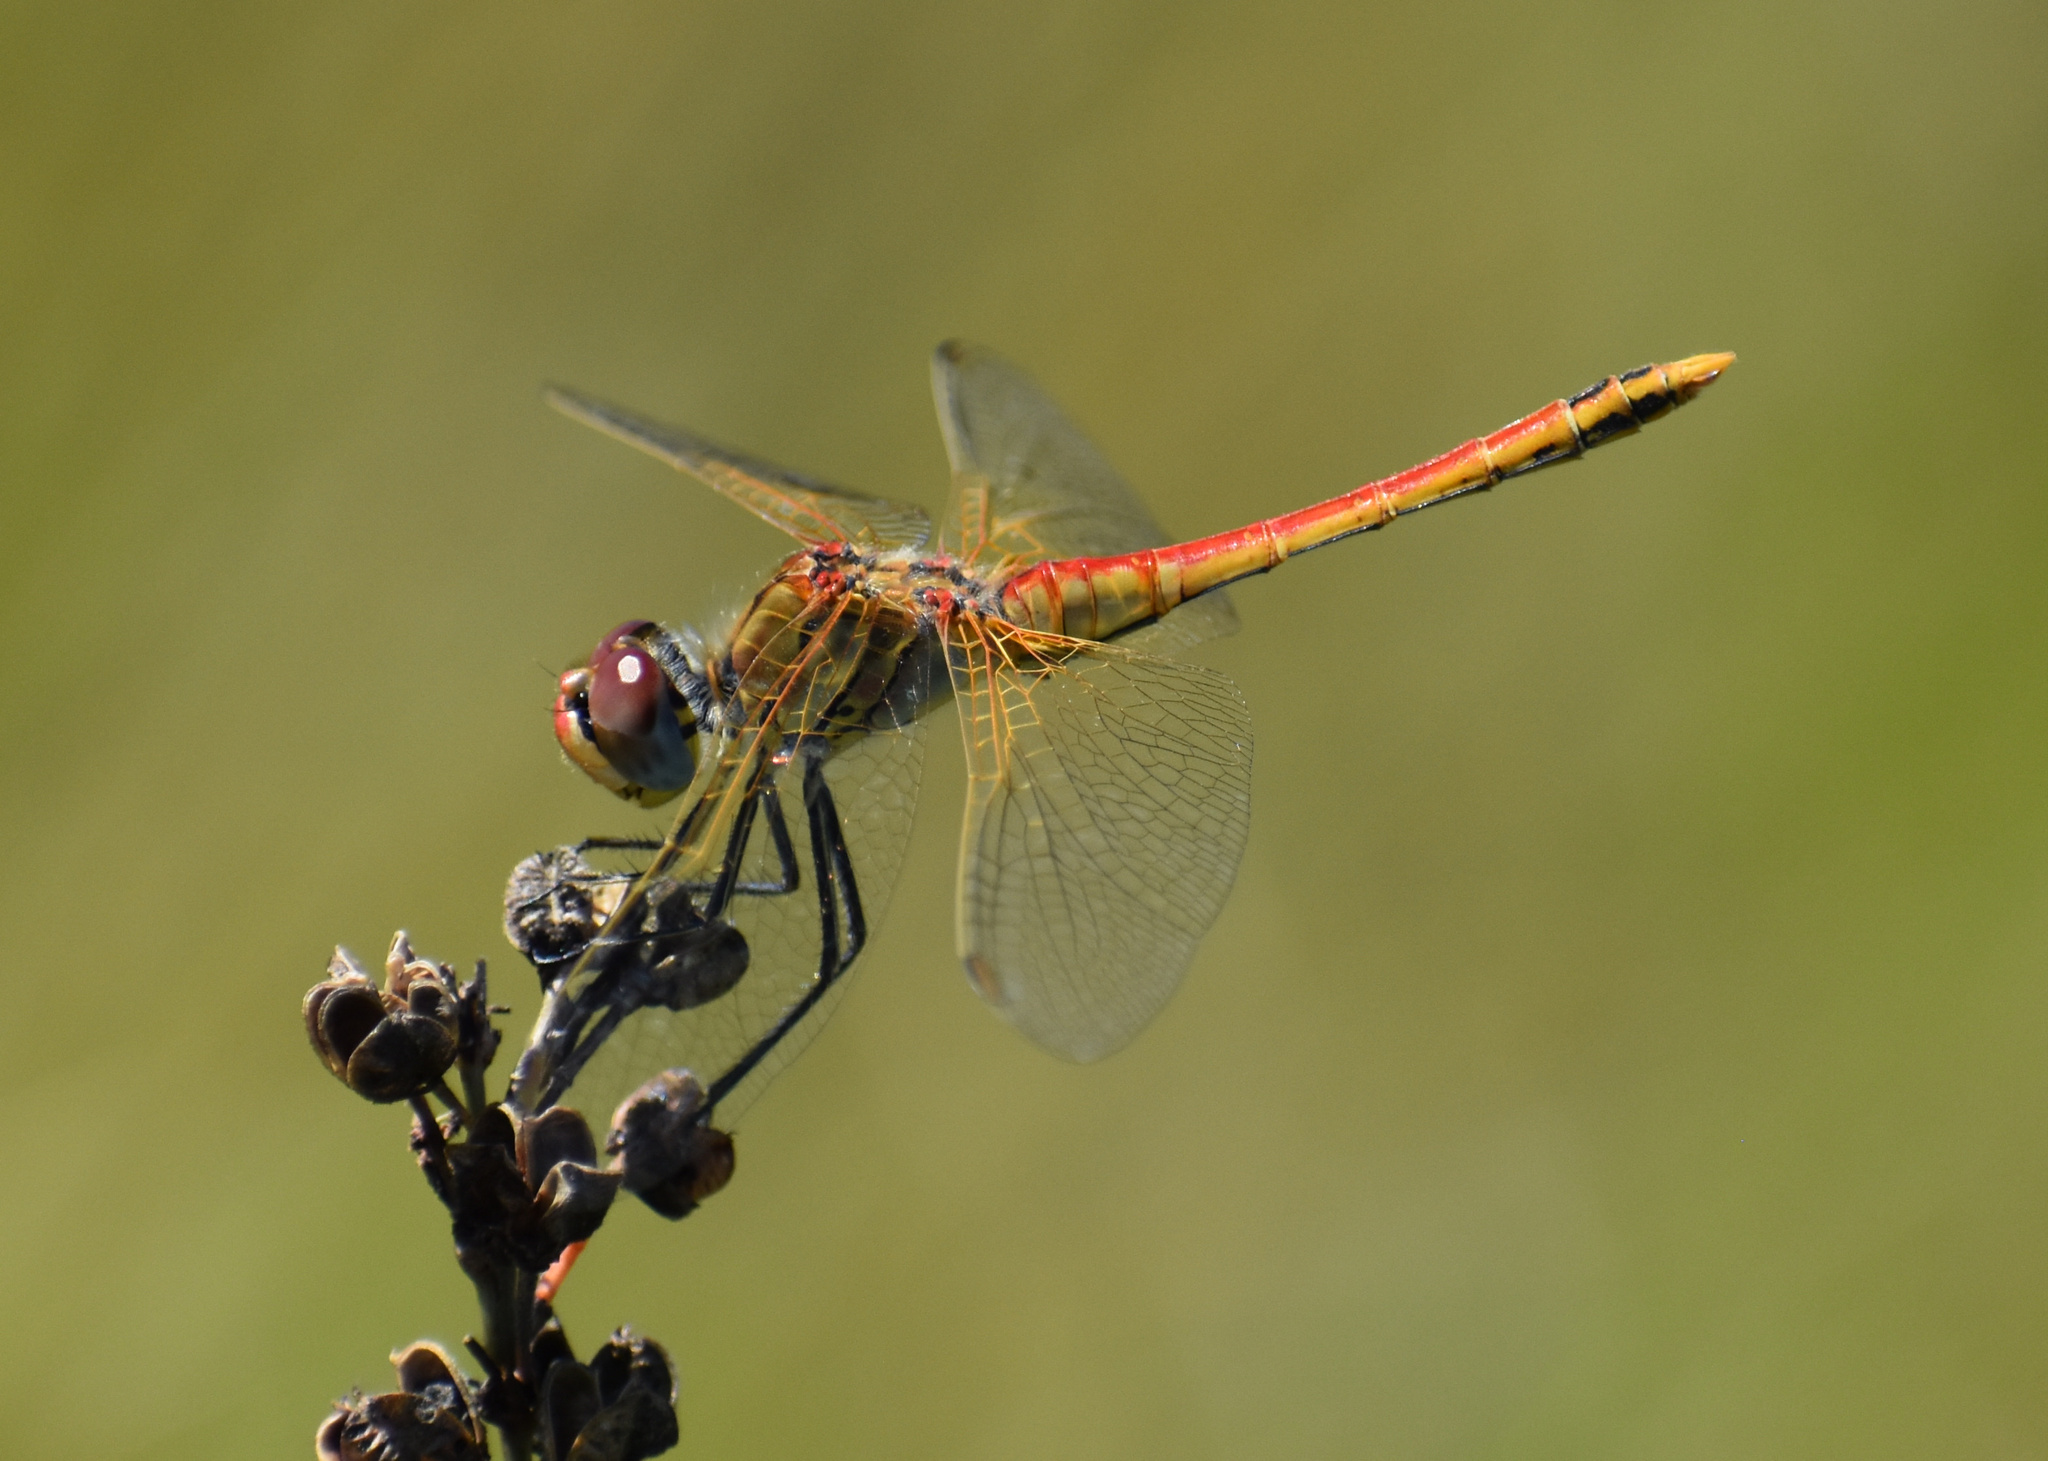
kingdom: Animalia
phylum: Arthropoda
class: Insecta
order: Odonata
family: Libellulidae
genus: Sympetrum
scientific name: Sympetrum fonscolombii
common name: Red-veined darter
